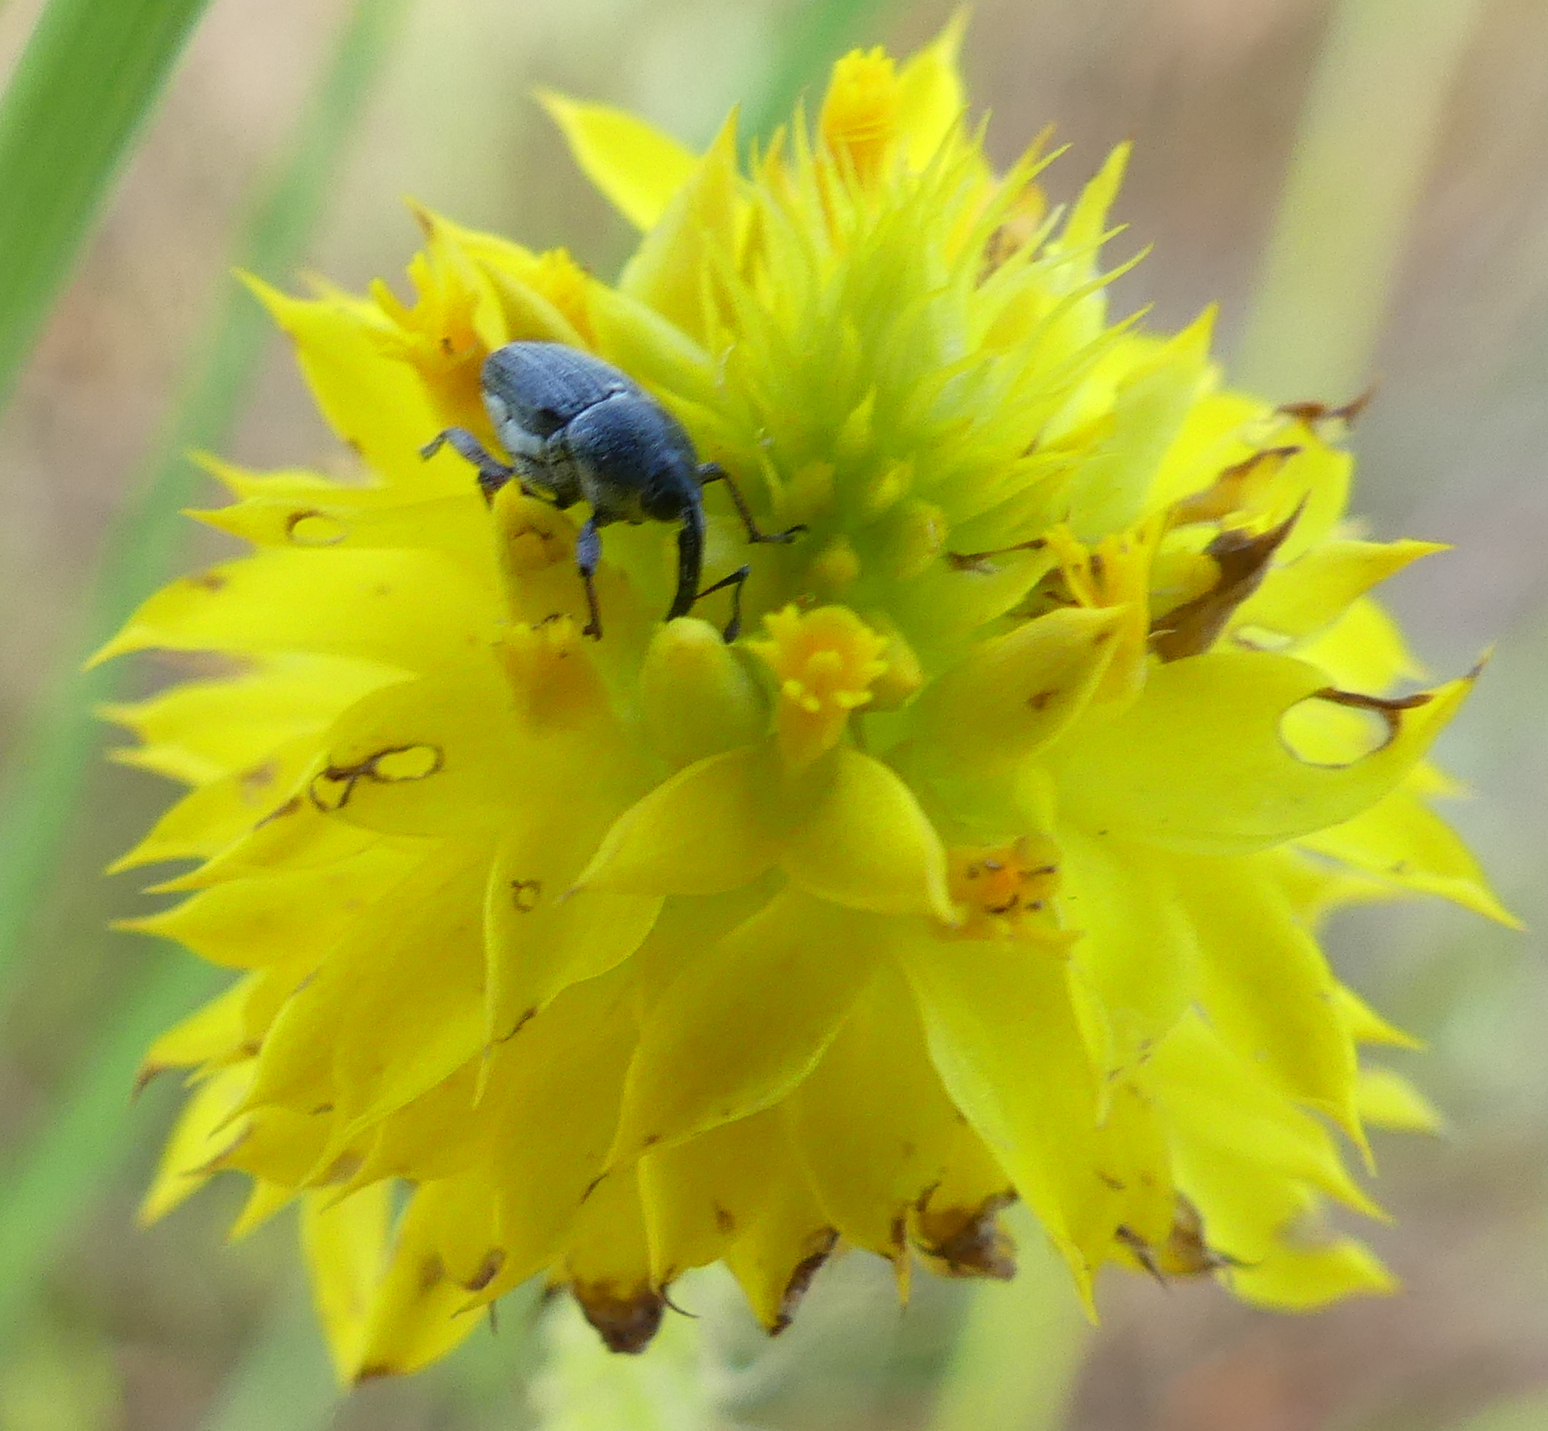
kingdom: Animalia
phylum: Arthropoda
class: Insecta
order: Coleoptera
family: Curculionidae
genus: Odontocorynus
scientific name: Odontocorynus larvatus
